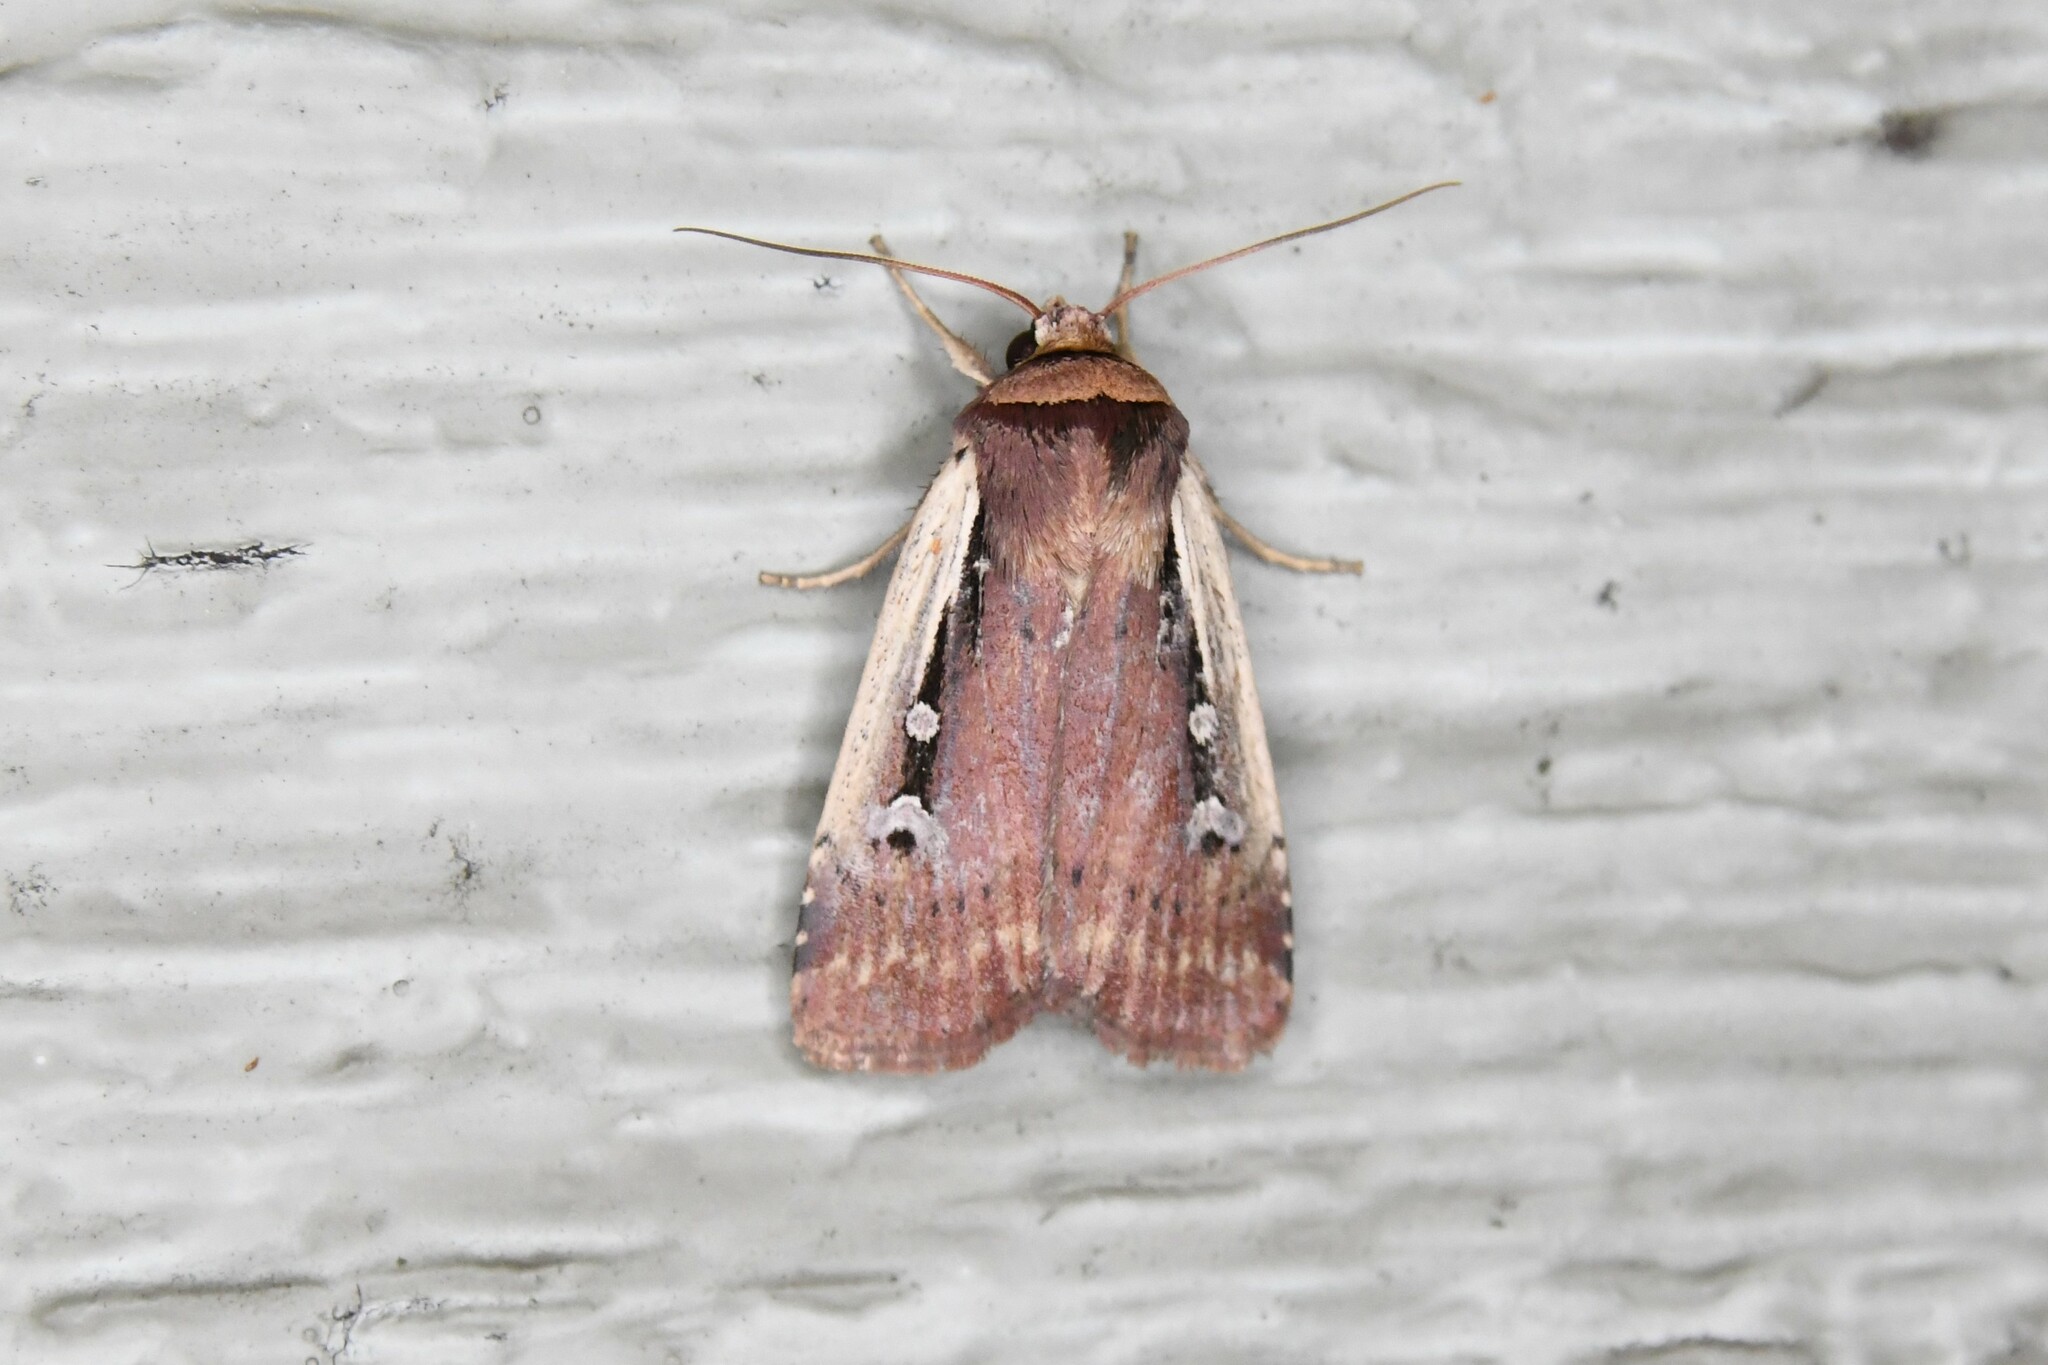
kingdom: Animalia
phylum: Arthropoda
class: Insecta
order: Lepidoptera
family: Noctuidae
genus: Ochropleura
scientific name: Ochropleura implecta
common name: Flame-shouldered dart
